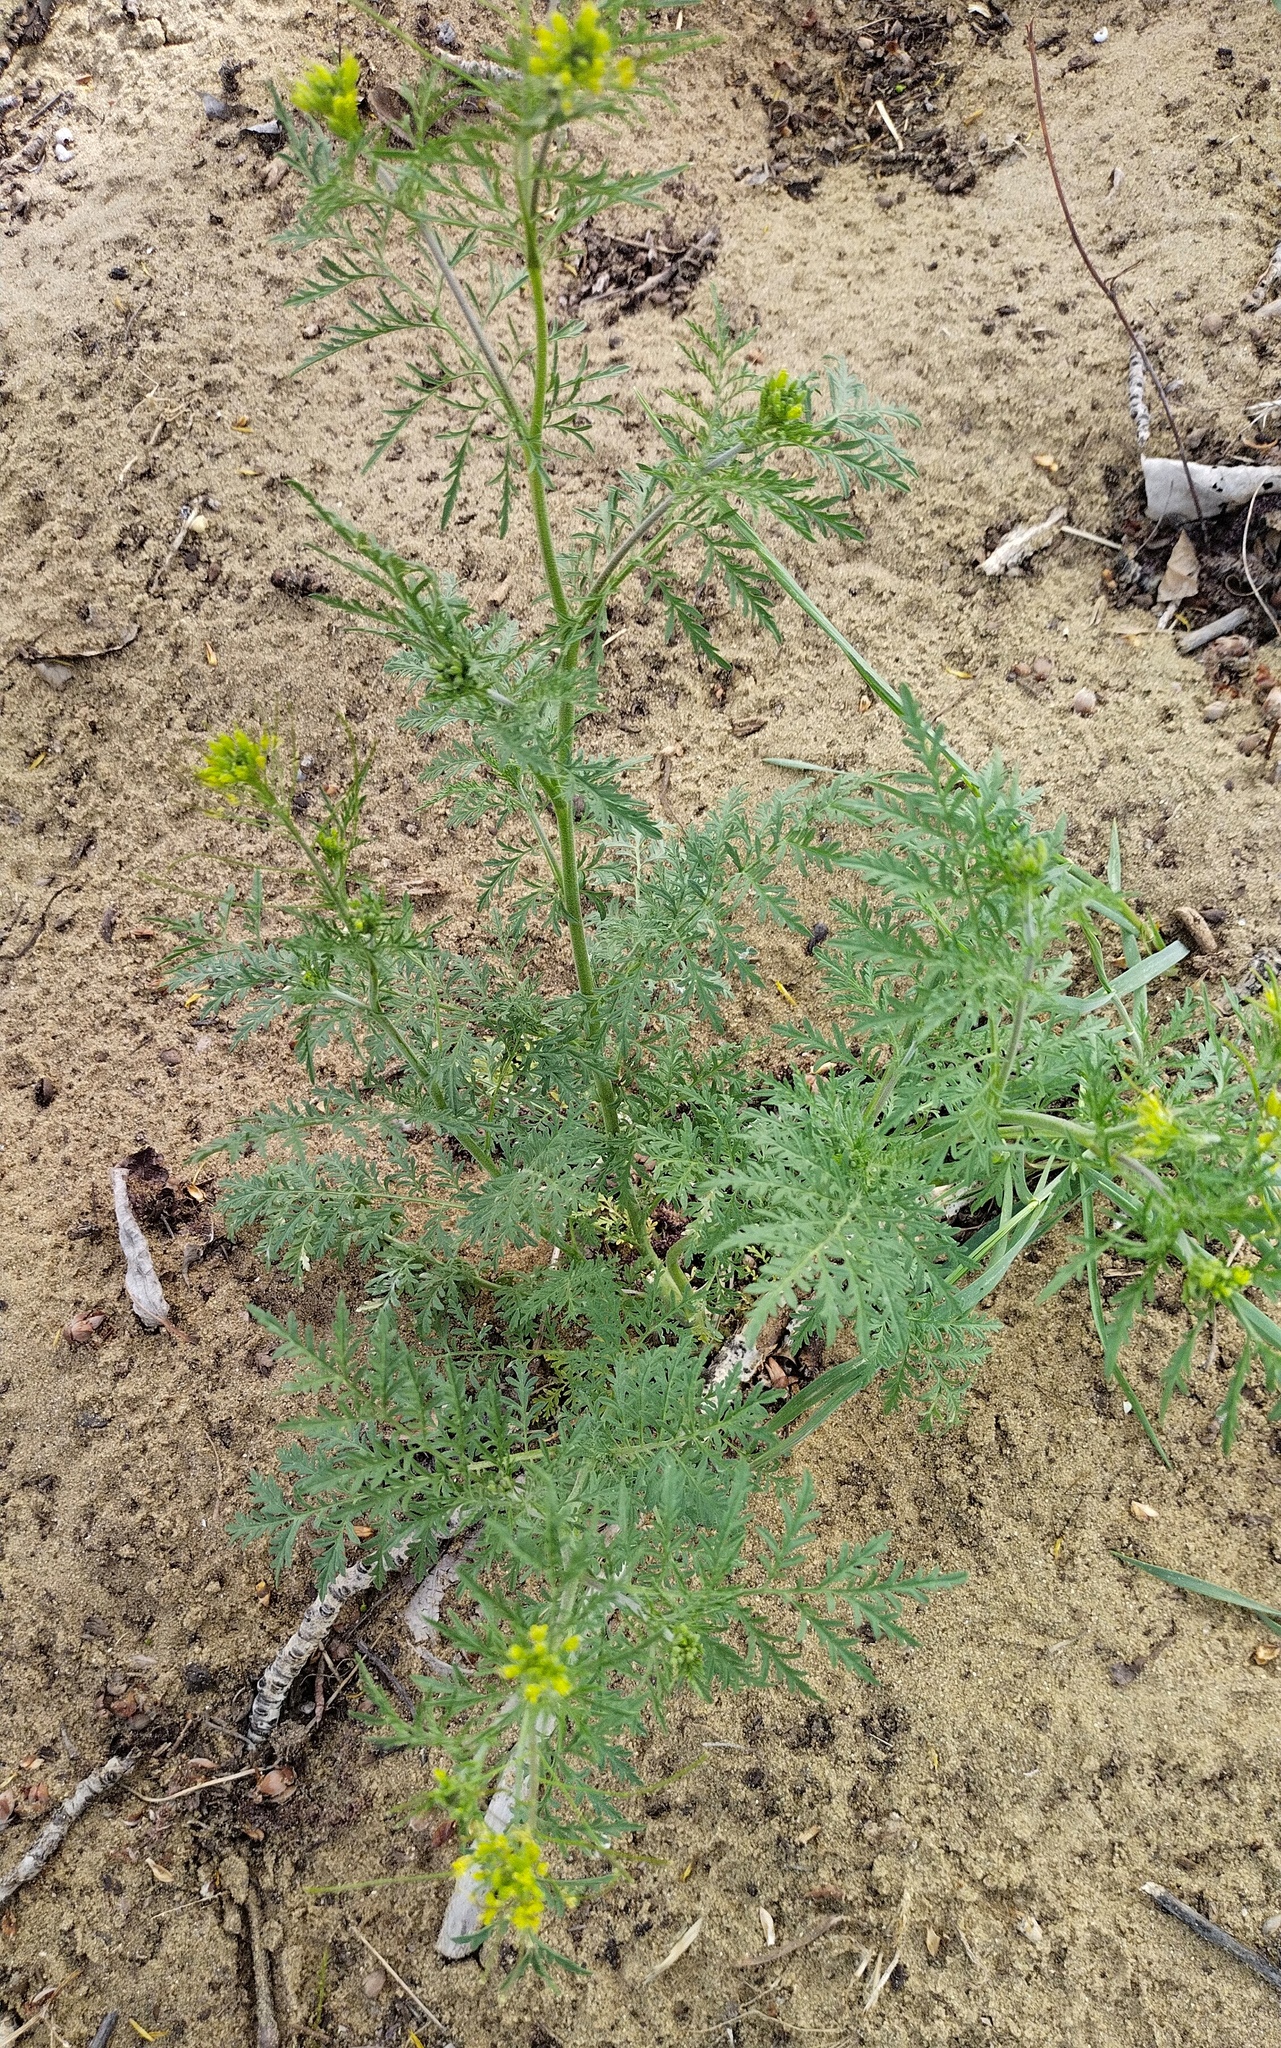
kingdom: Plantae
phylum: Tracheophyta
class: Magnoliopsida
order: Brassicales
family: Brassicaceae
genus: Descurainia
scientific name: Descurainia sophia
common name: Flixweed
